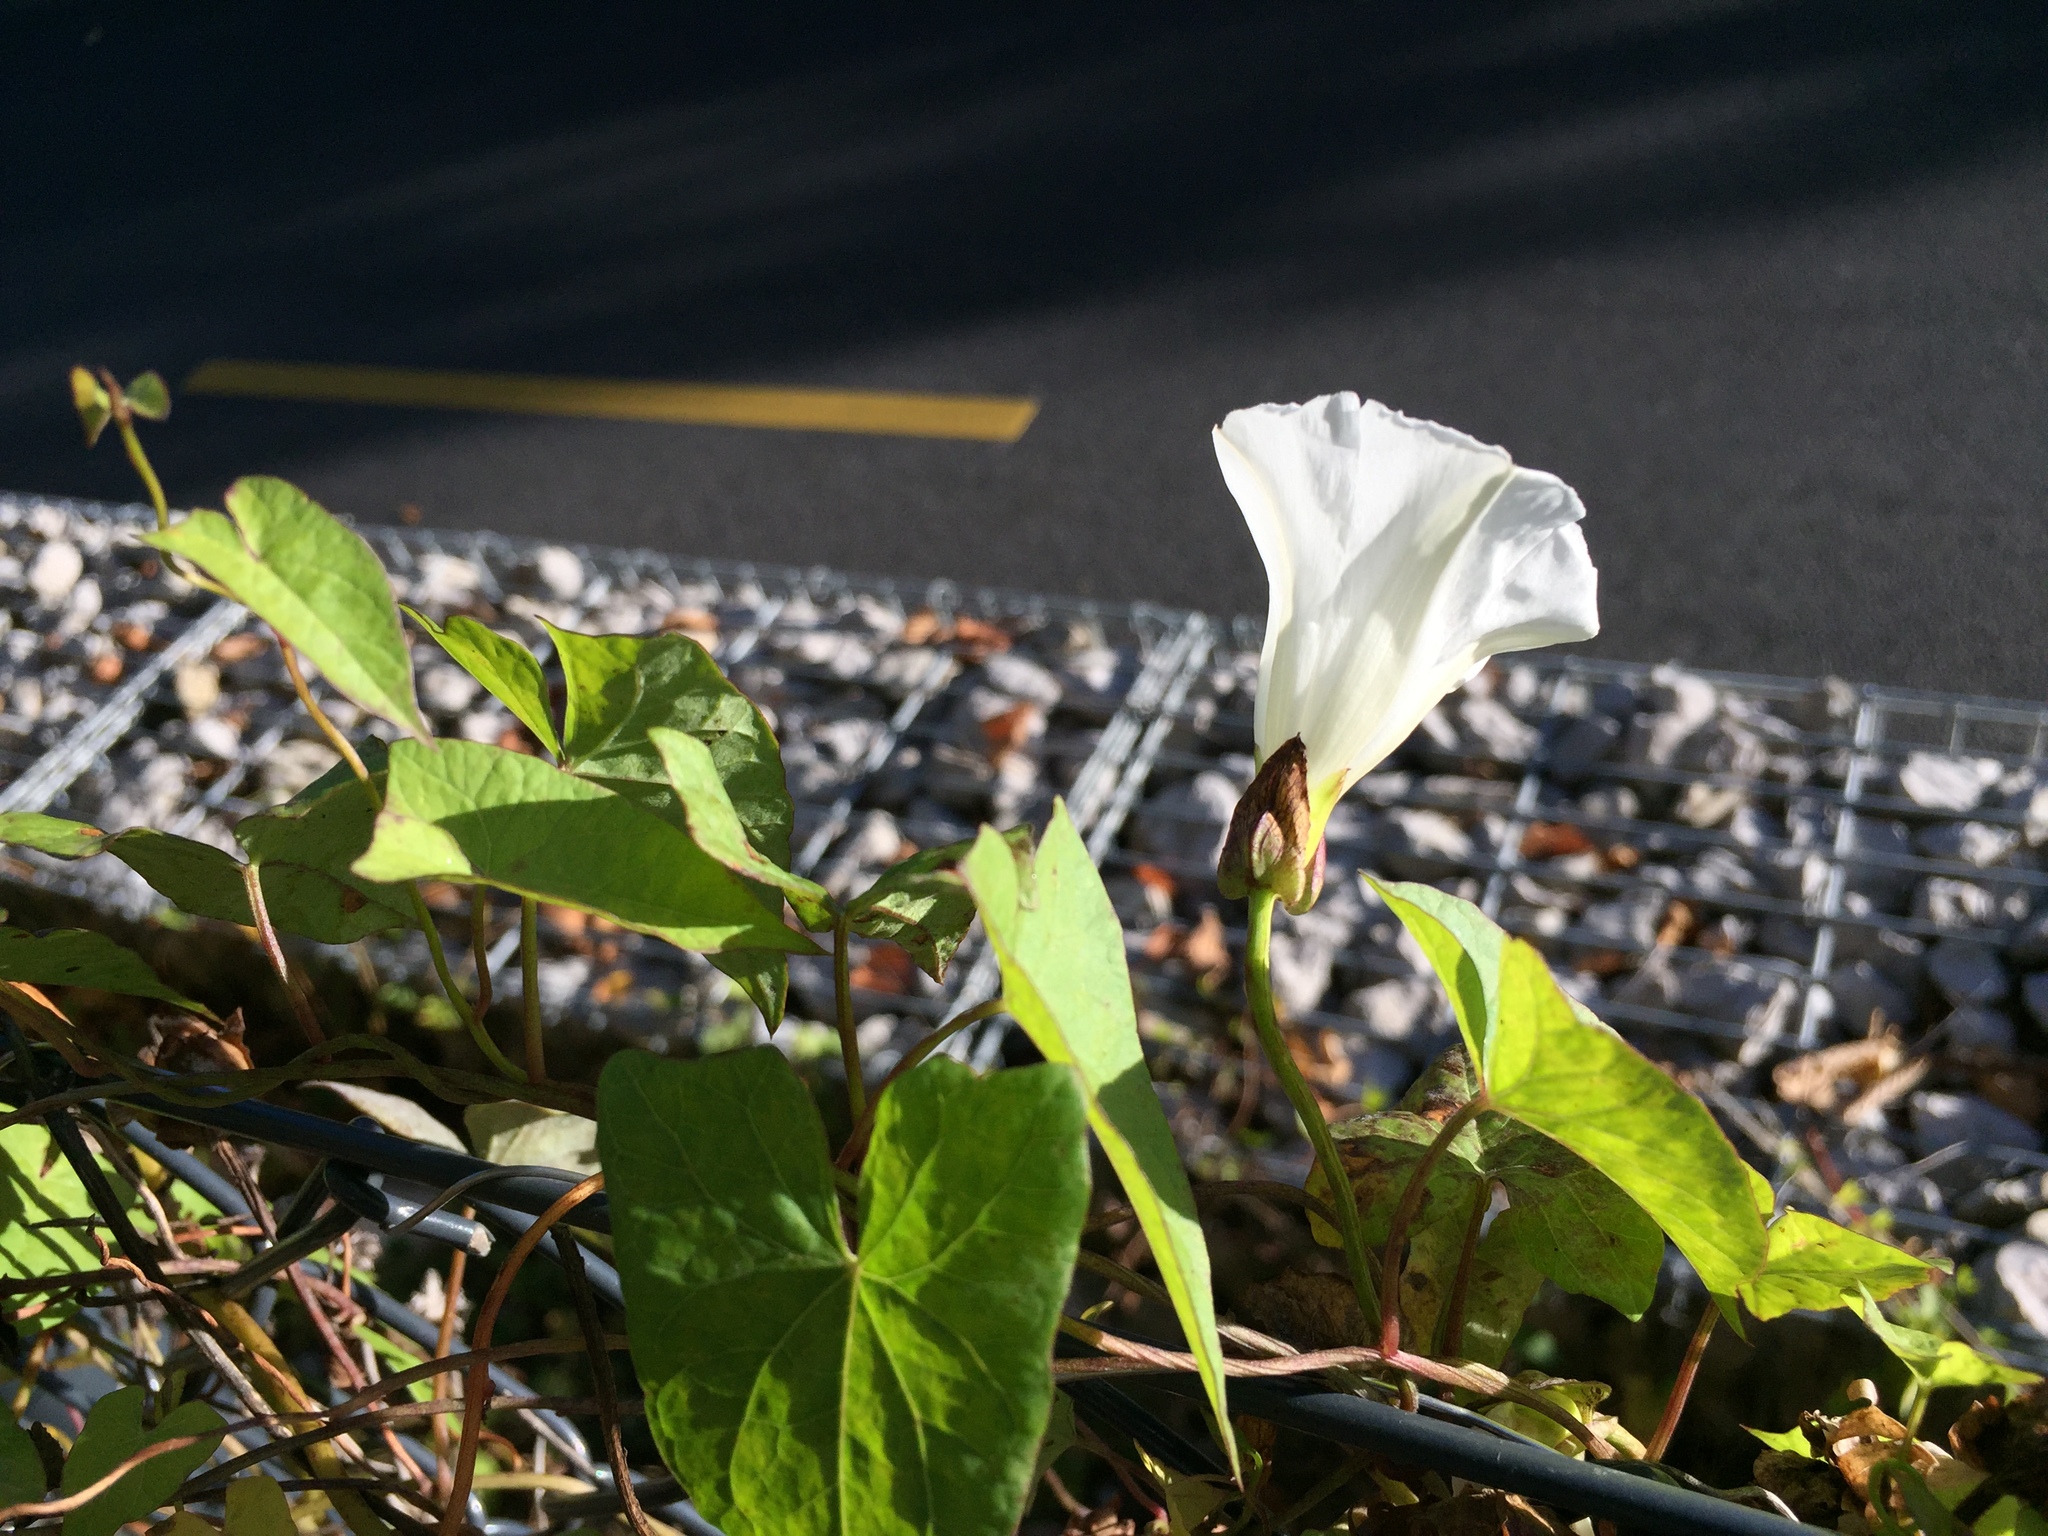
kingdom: Plantae
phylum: Tracheophyta
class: Magnoliopsida
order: Solanales
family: Convolvulaceae
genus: Calystegia
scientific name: Calystegia sepium
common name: Hedge bindweed
